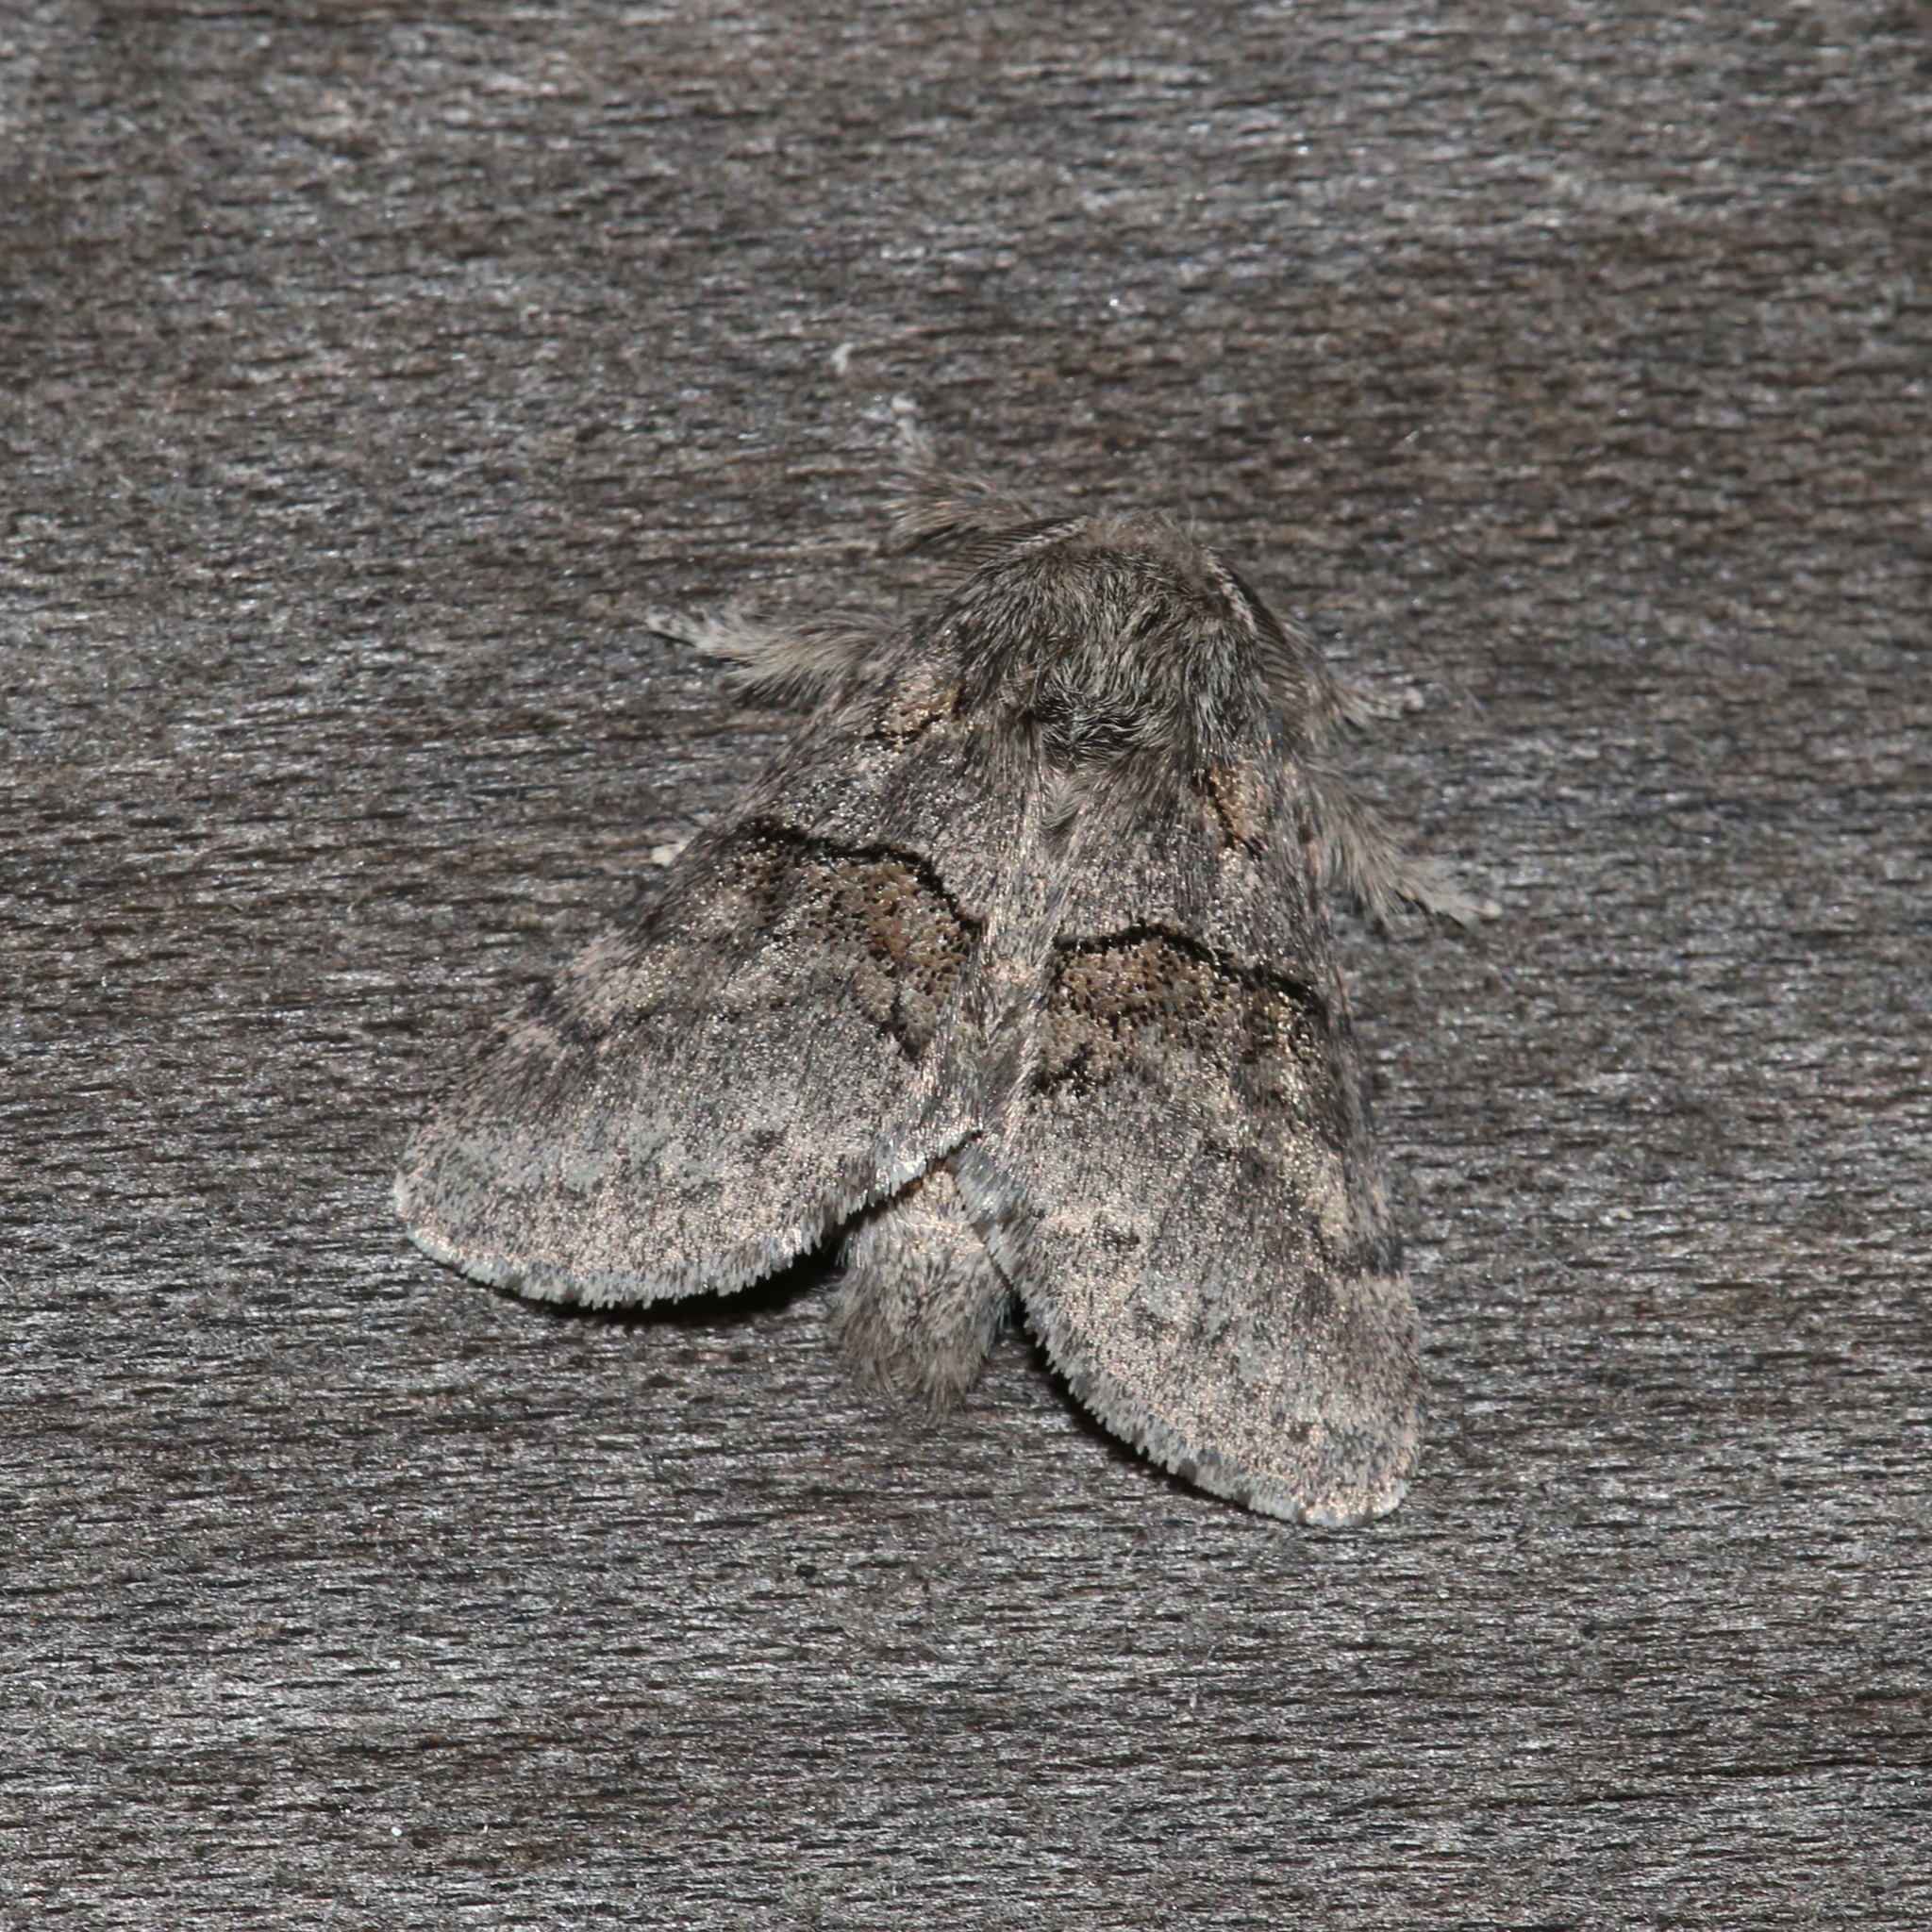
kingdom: Animalia
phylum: Arthropoda
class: Insecta
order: Lepidoptera
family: Notodontidae
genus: Gluphisia
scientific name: Gluphisia septentrionis
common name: Common gluphisia
